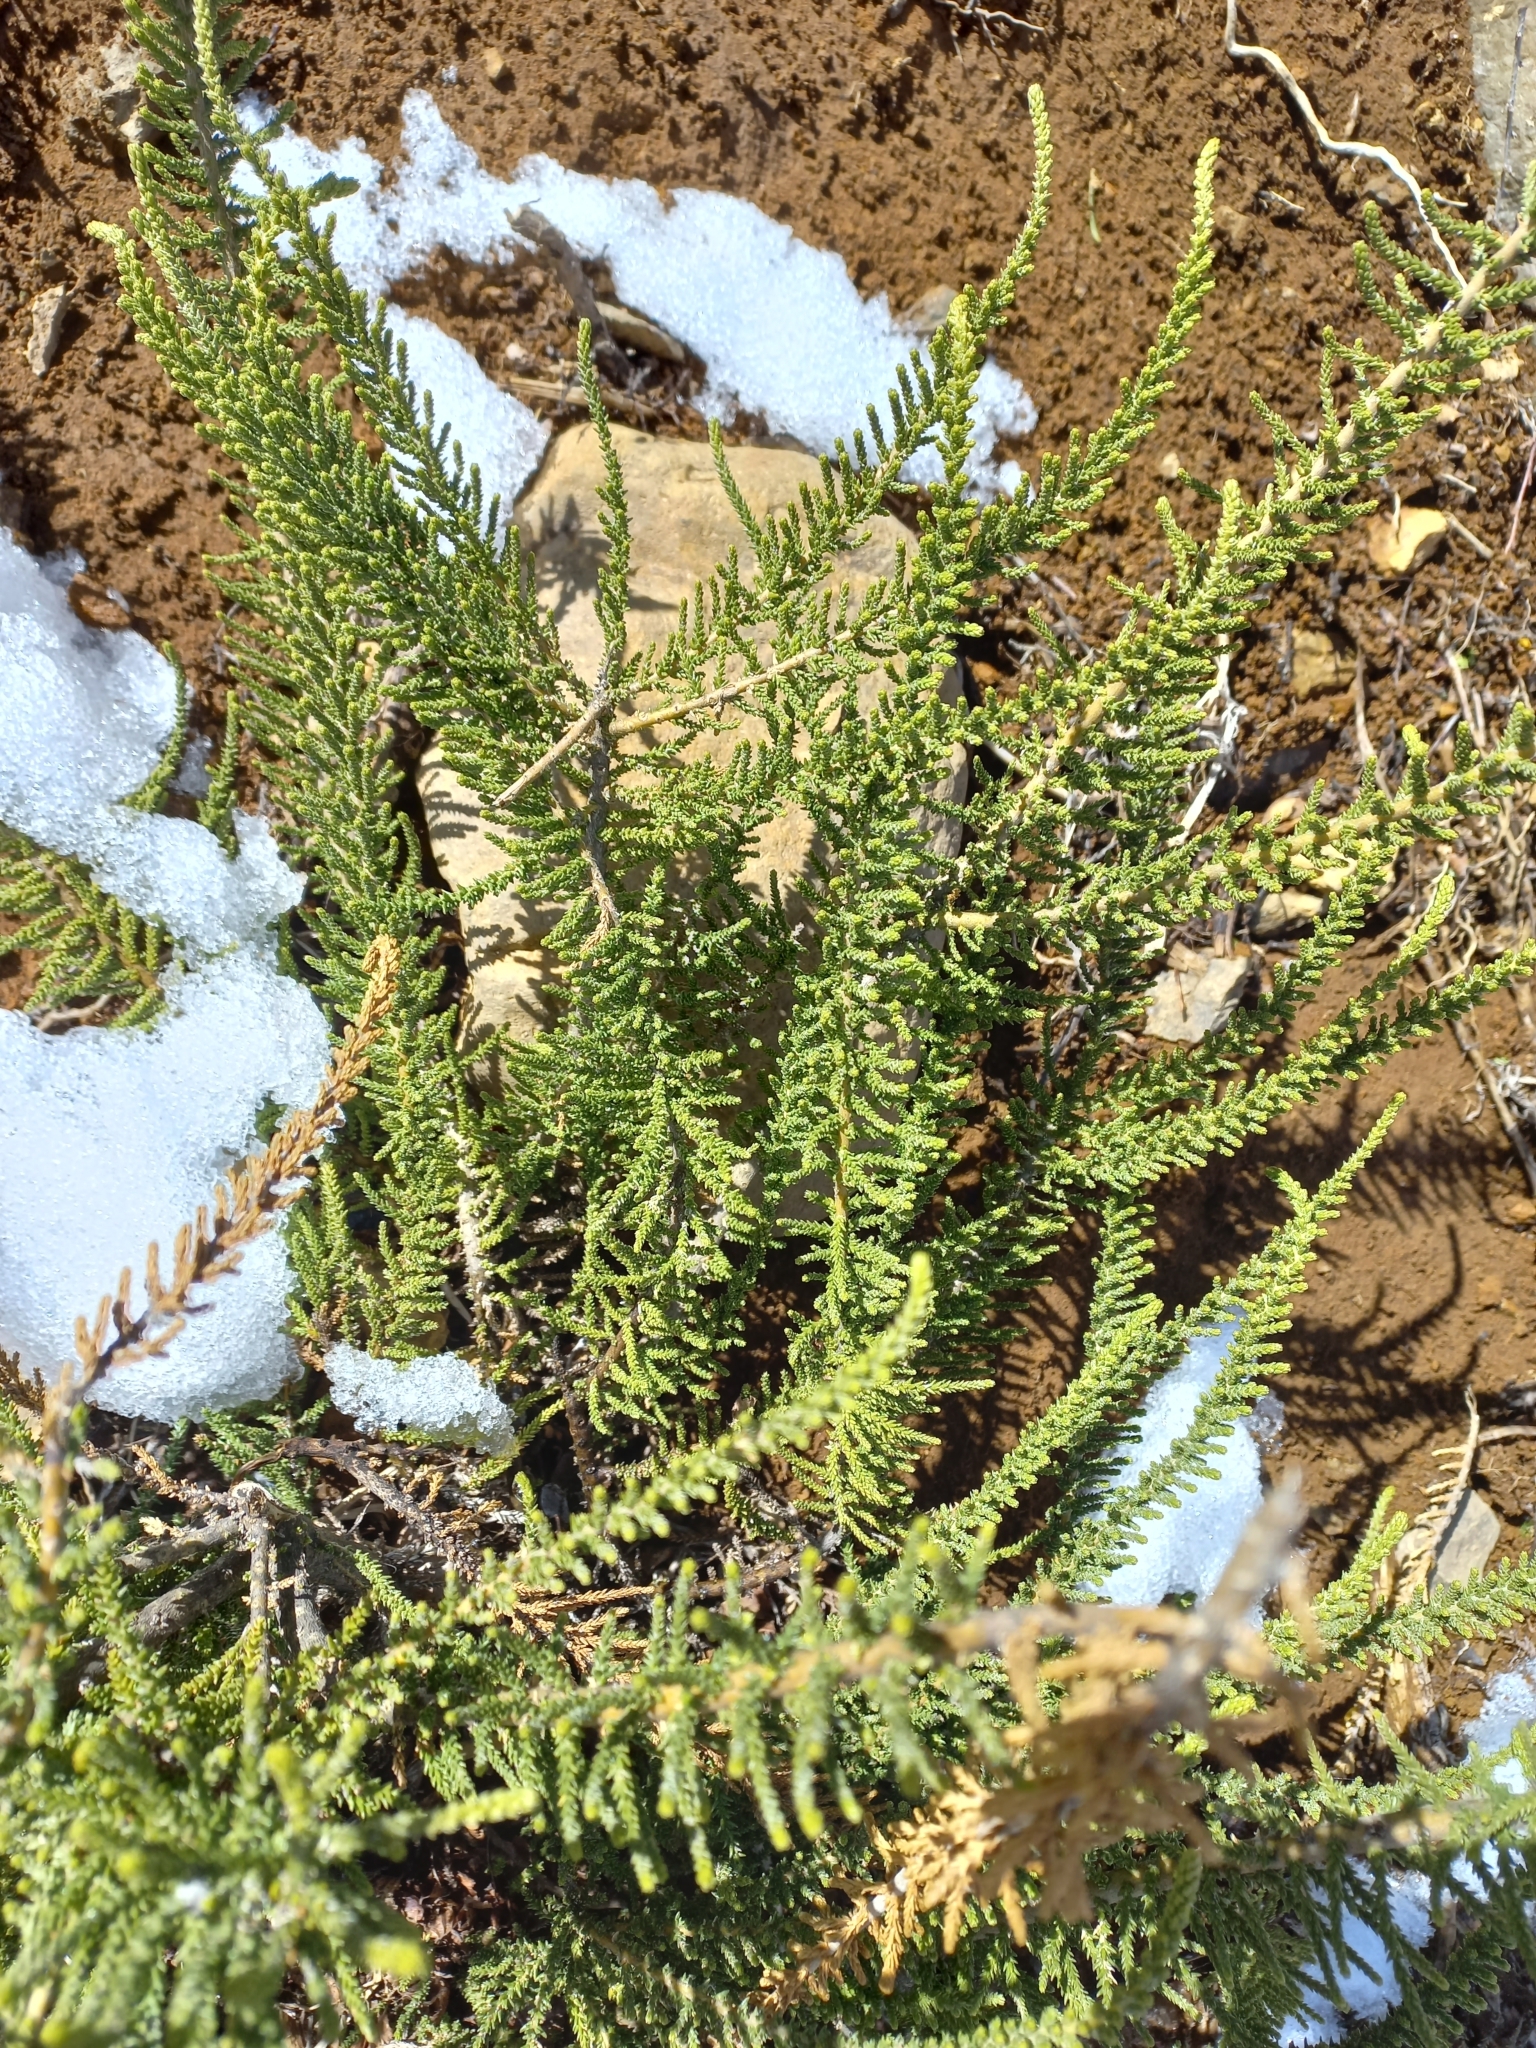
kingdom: Plantae
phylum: Tracheophyta
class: Magnoliopsida
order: Solanales
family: Solanaceae
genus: Fabiana
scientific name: Fabiana imbricata
